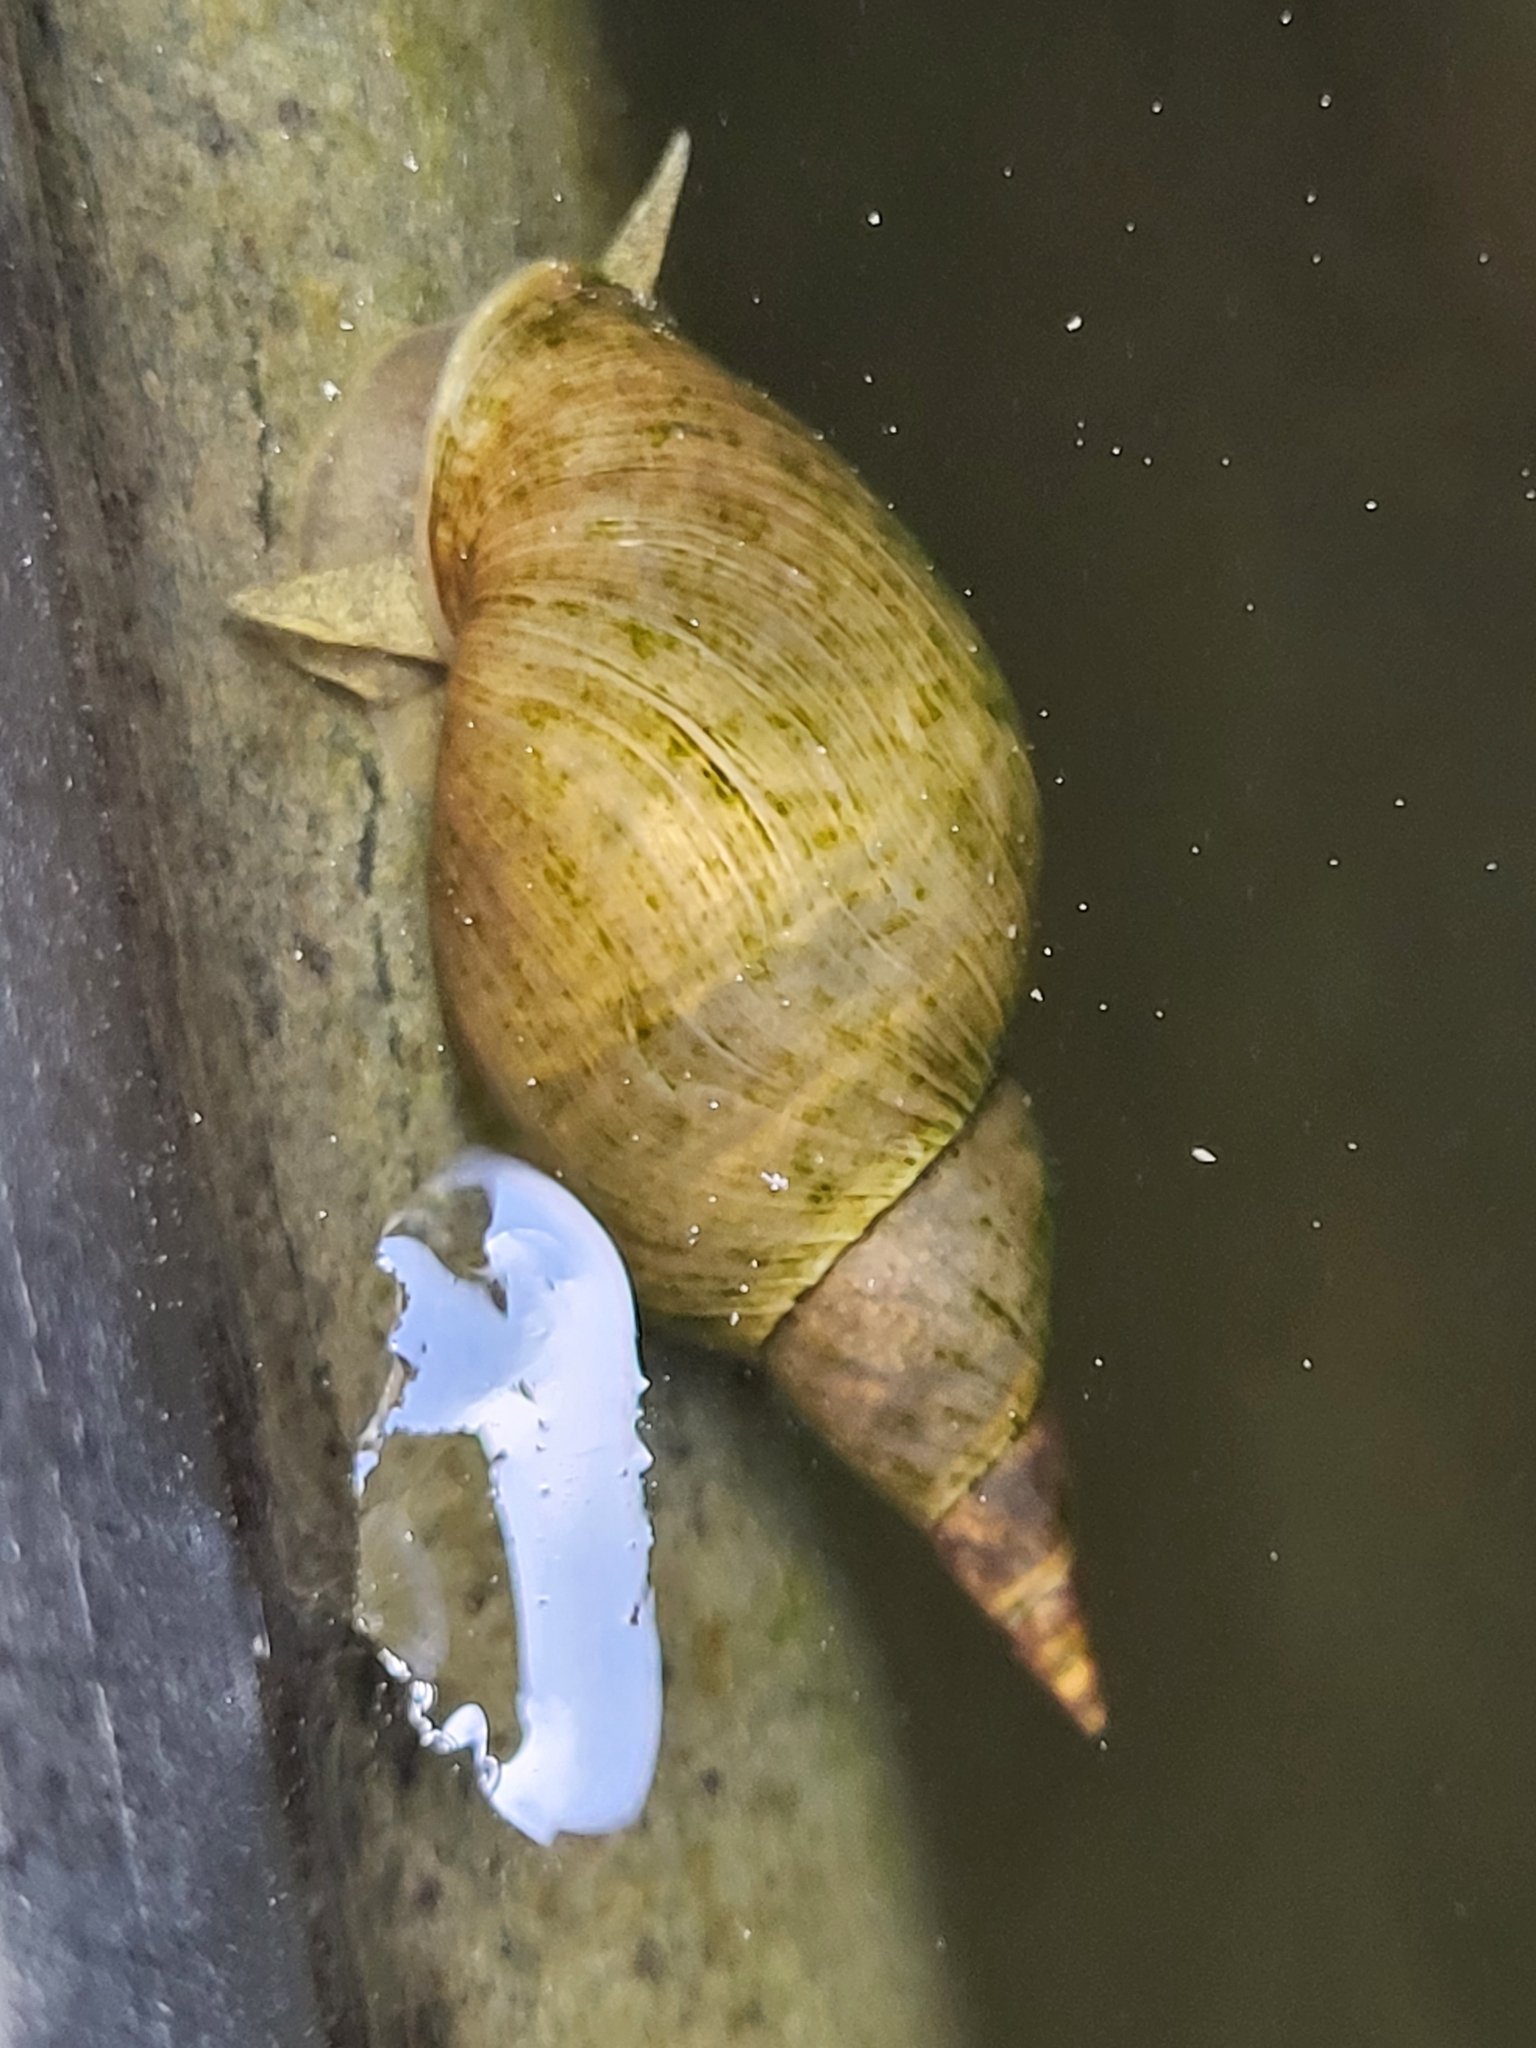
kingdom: Animalia
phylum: Mollusca
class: Gastropoda
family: Lymnaeidae
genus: Lymnaea
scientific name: Lymnaea stagnalis
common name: Great pond snail
